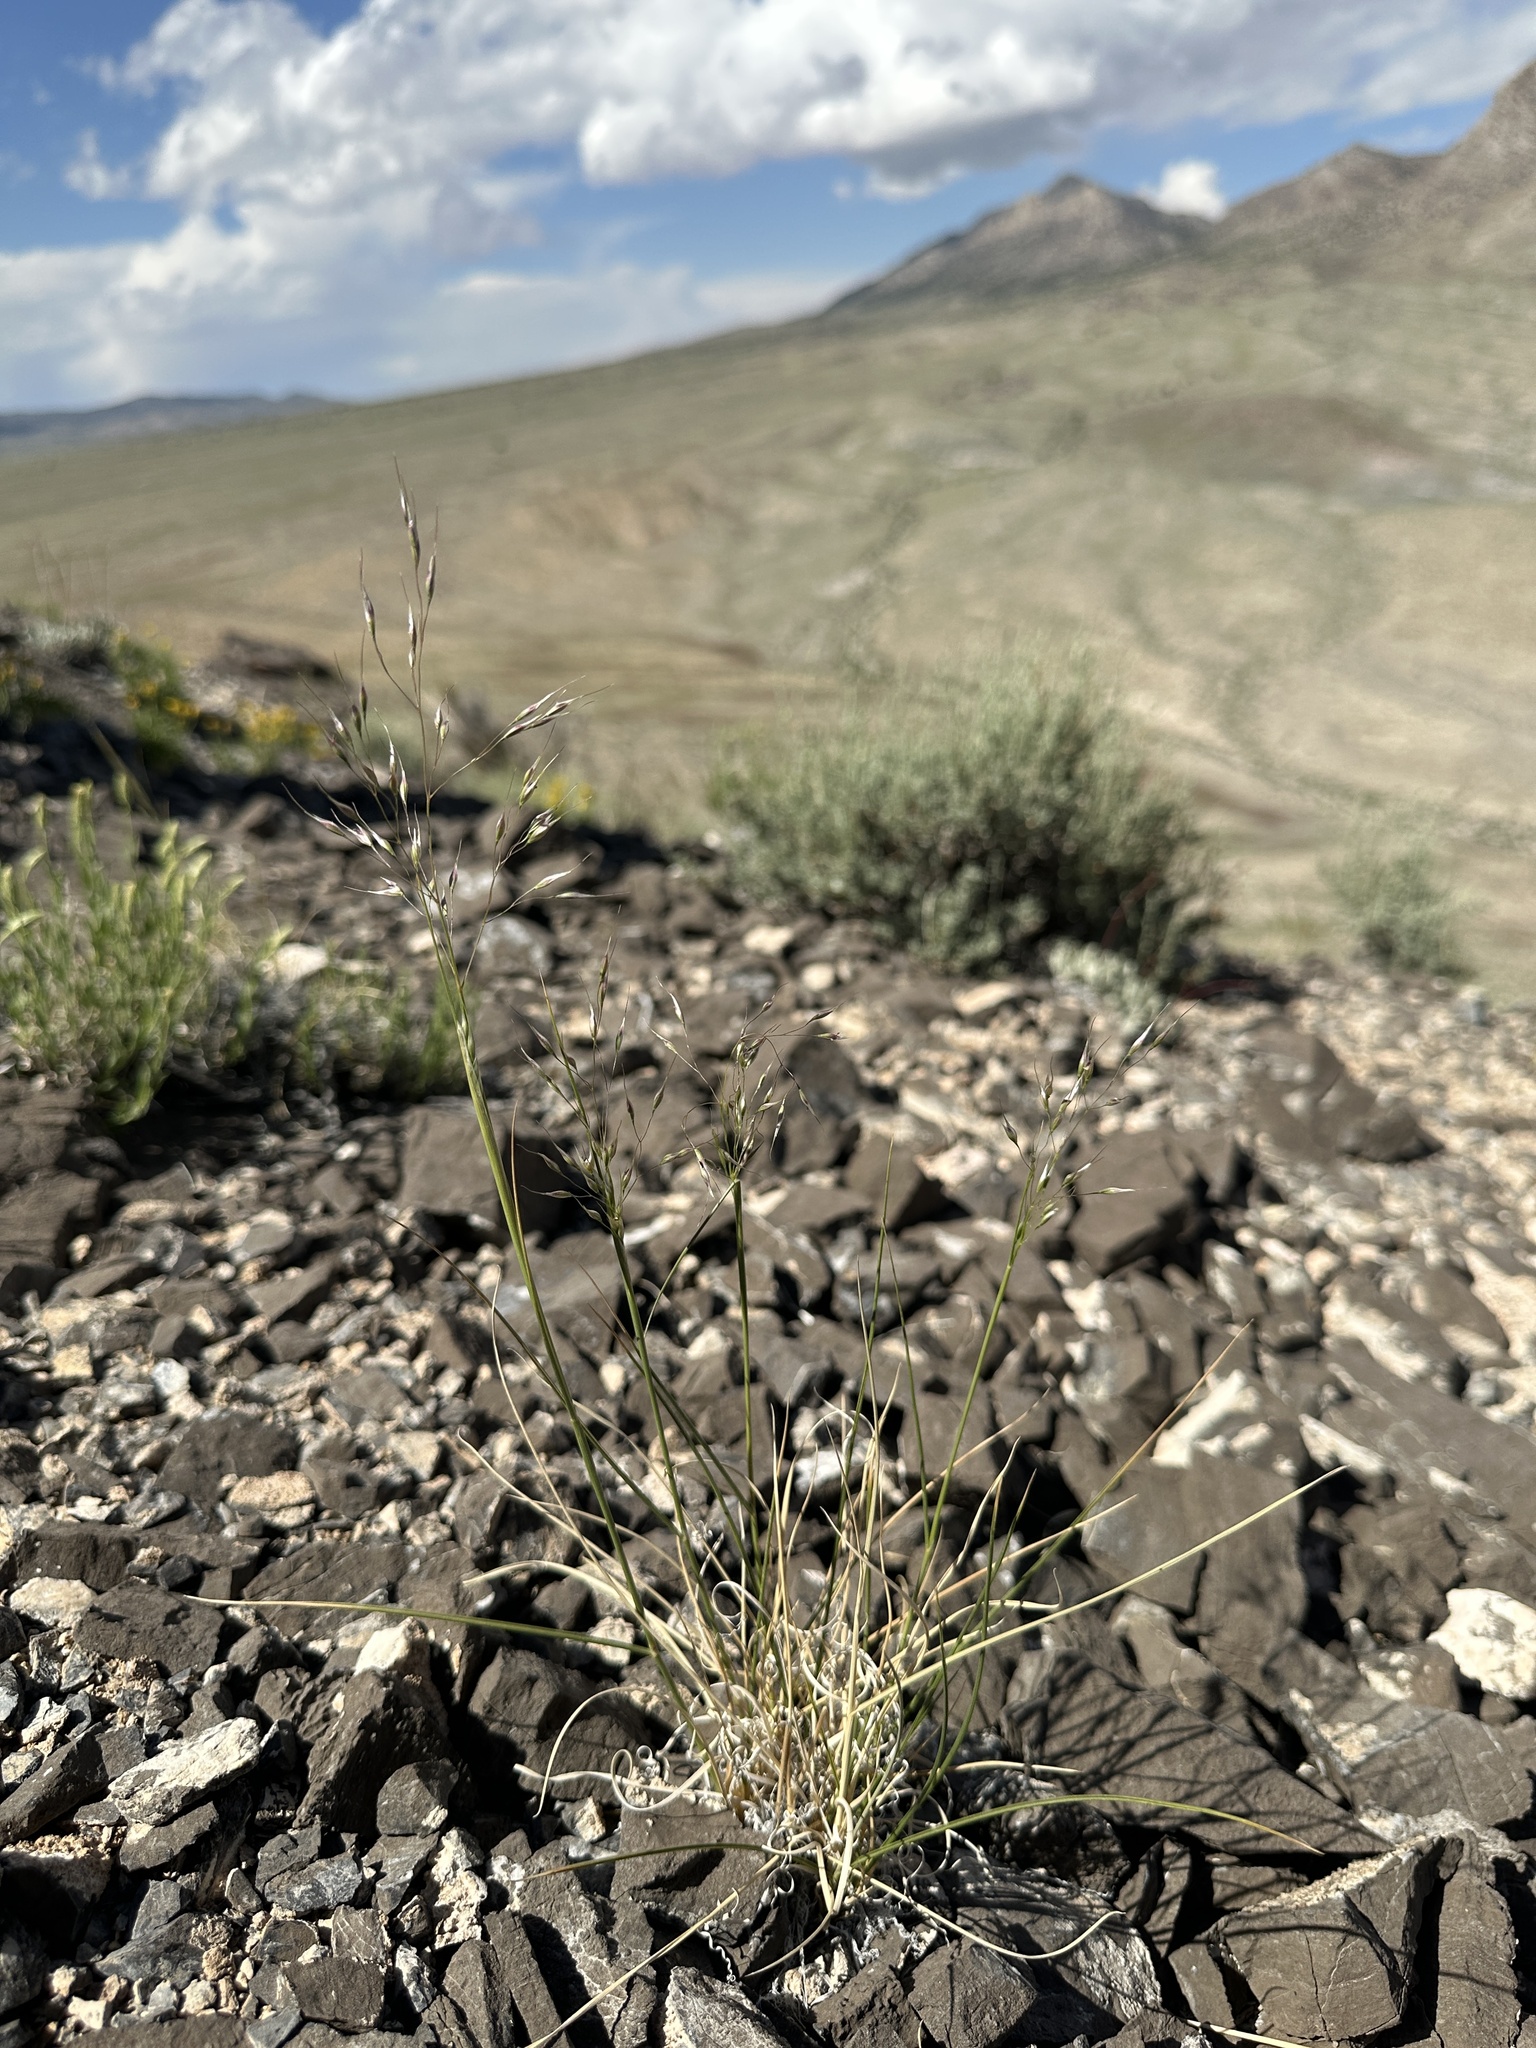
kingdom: Plantae
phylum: Tracheophyta
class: Liliopsida
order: Poales
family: Poaceae
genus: Eriocoma
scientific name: Eriocoma bloomeri
